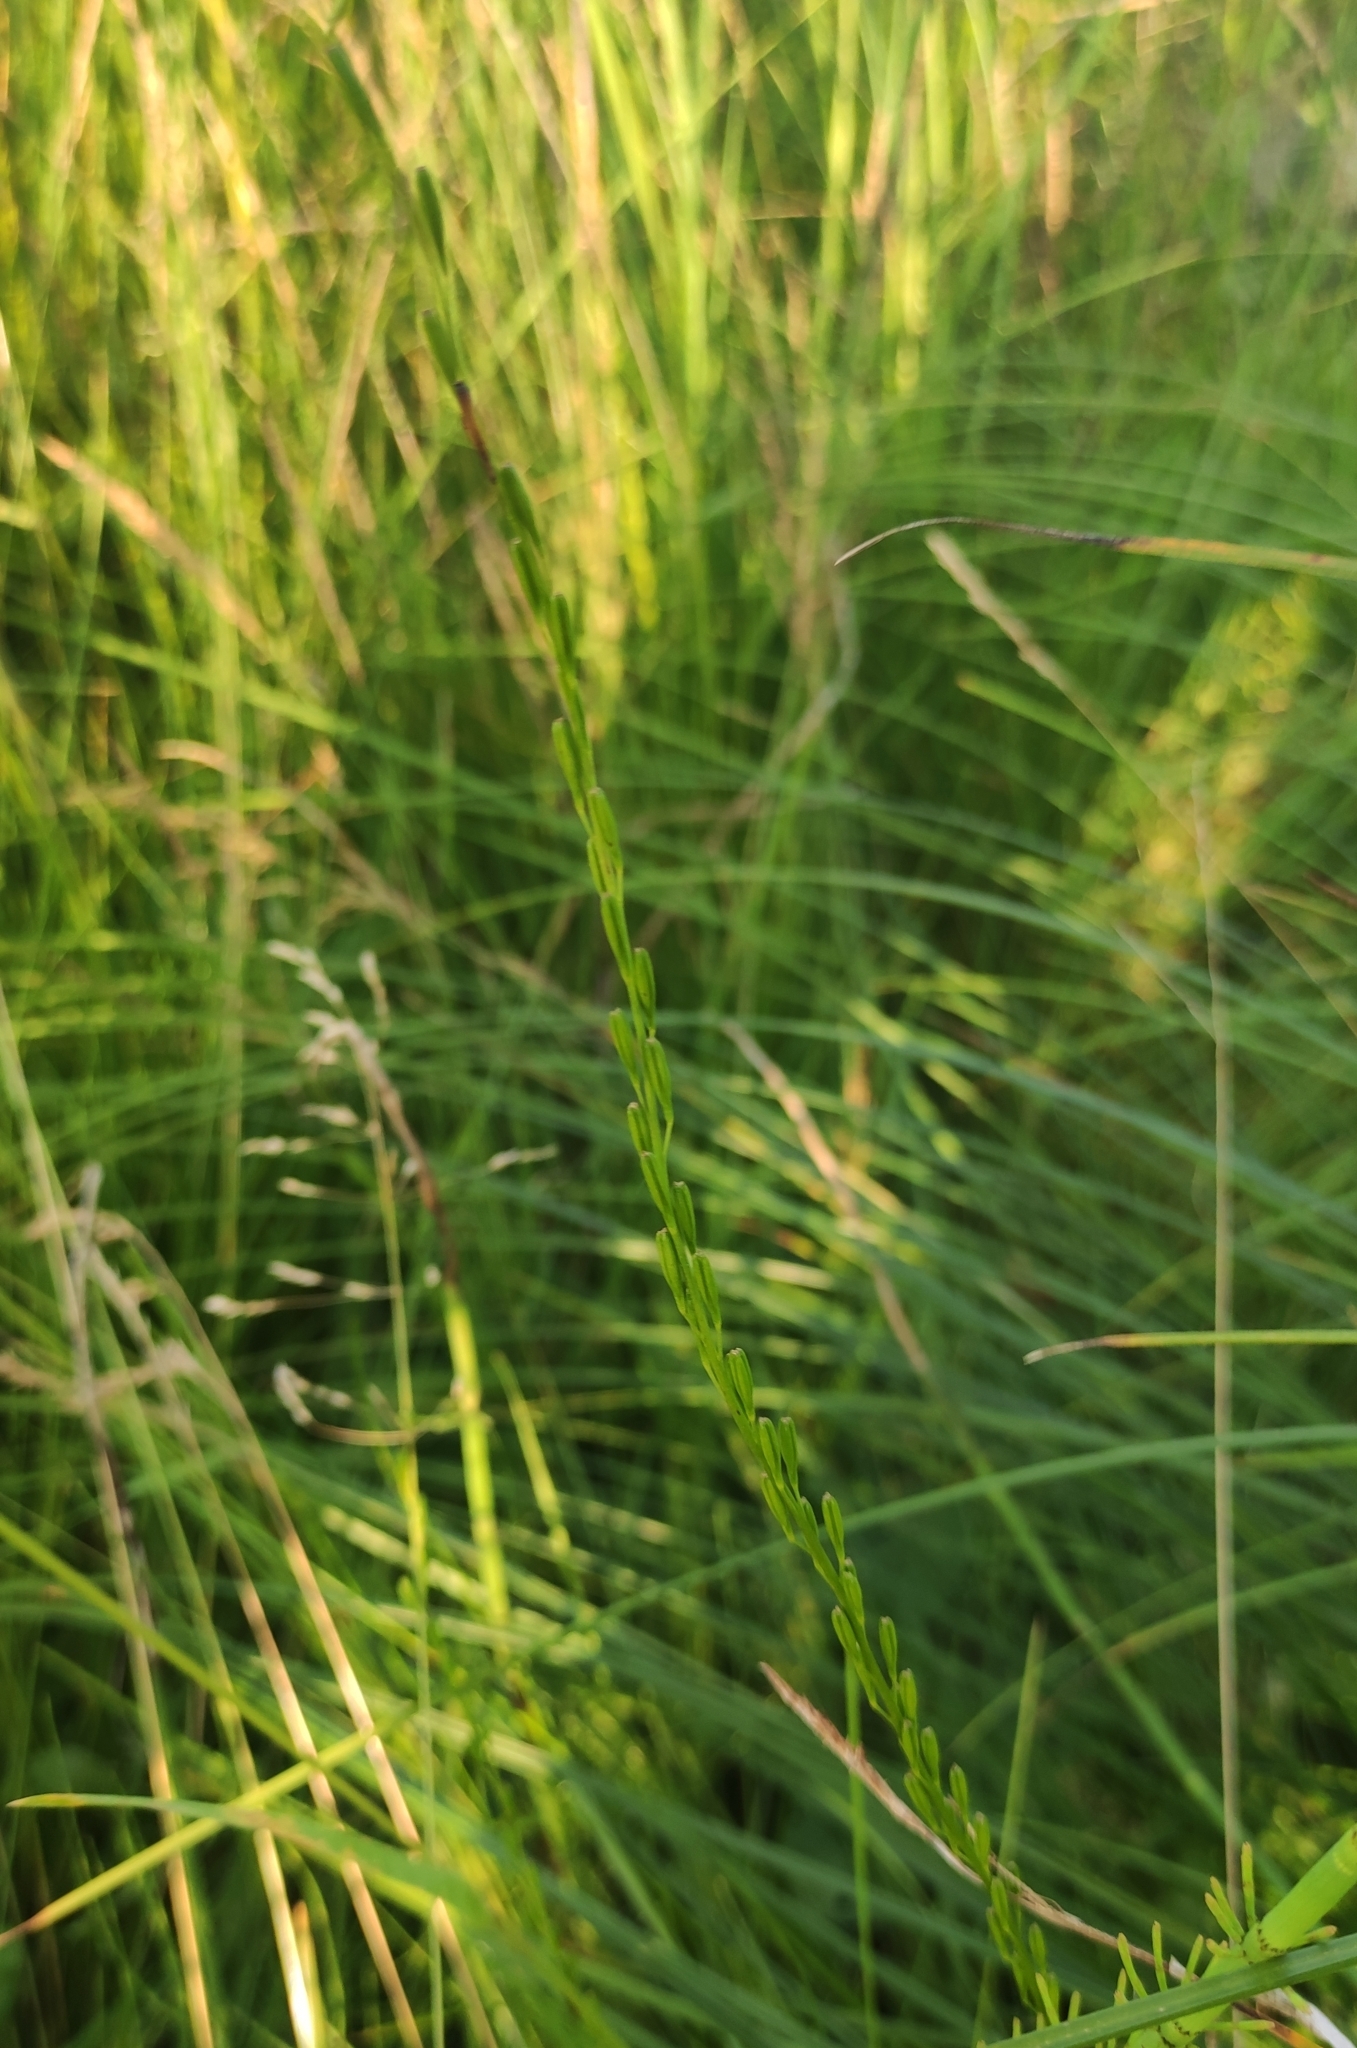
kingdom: Plantae
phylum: Tracheophyta
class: Liliopsida
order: Alismatales
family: Juncaginaceae
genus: Triglochin
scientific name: Triglochin palustris
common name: Marsh arrowgrass
